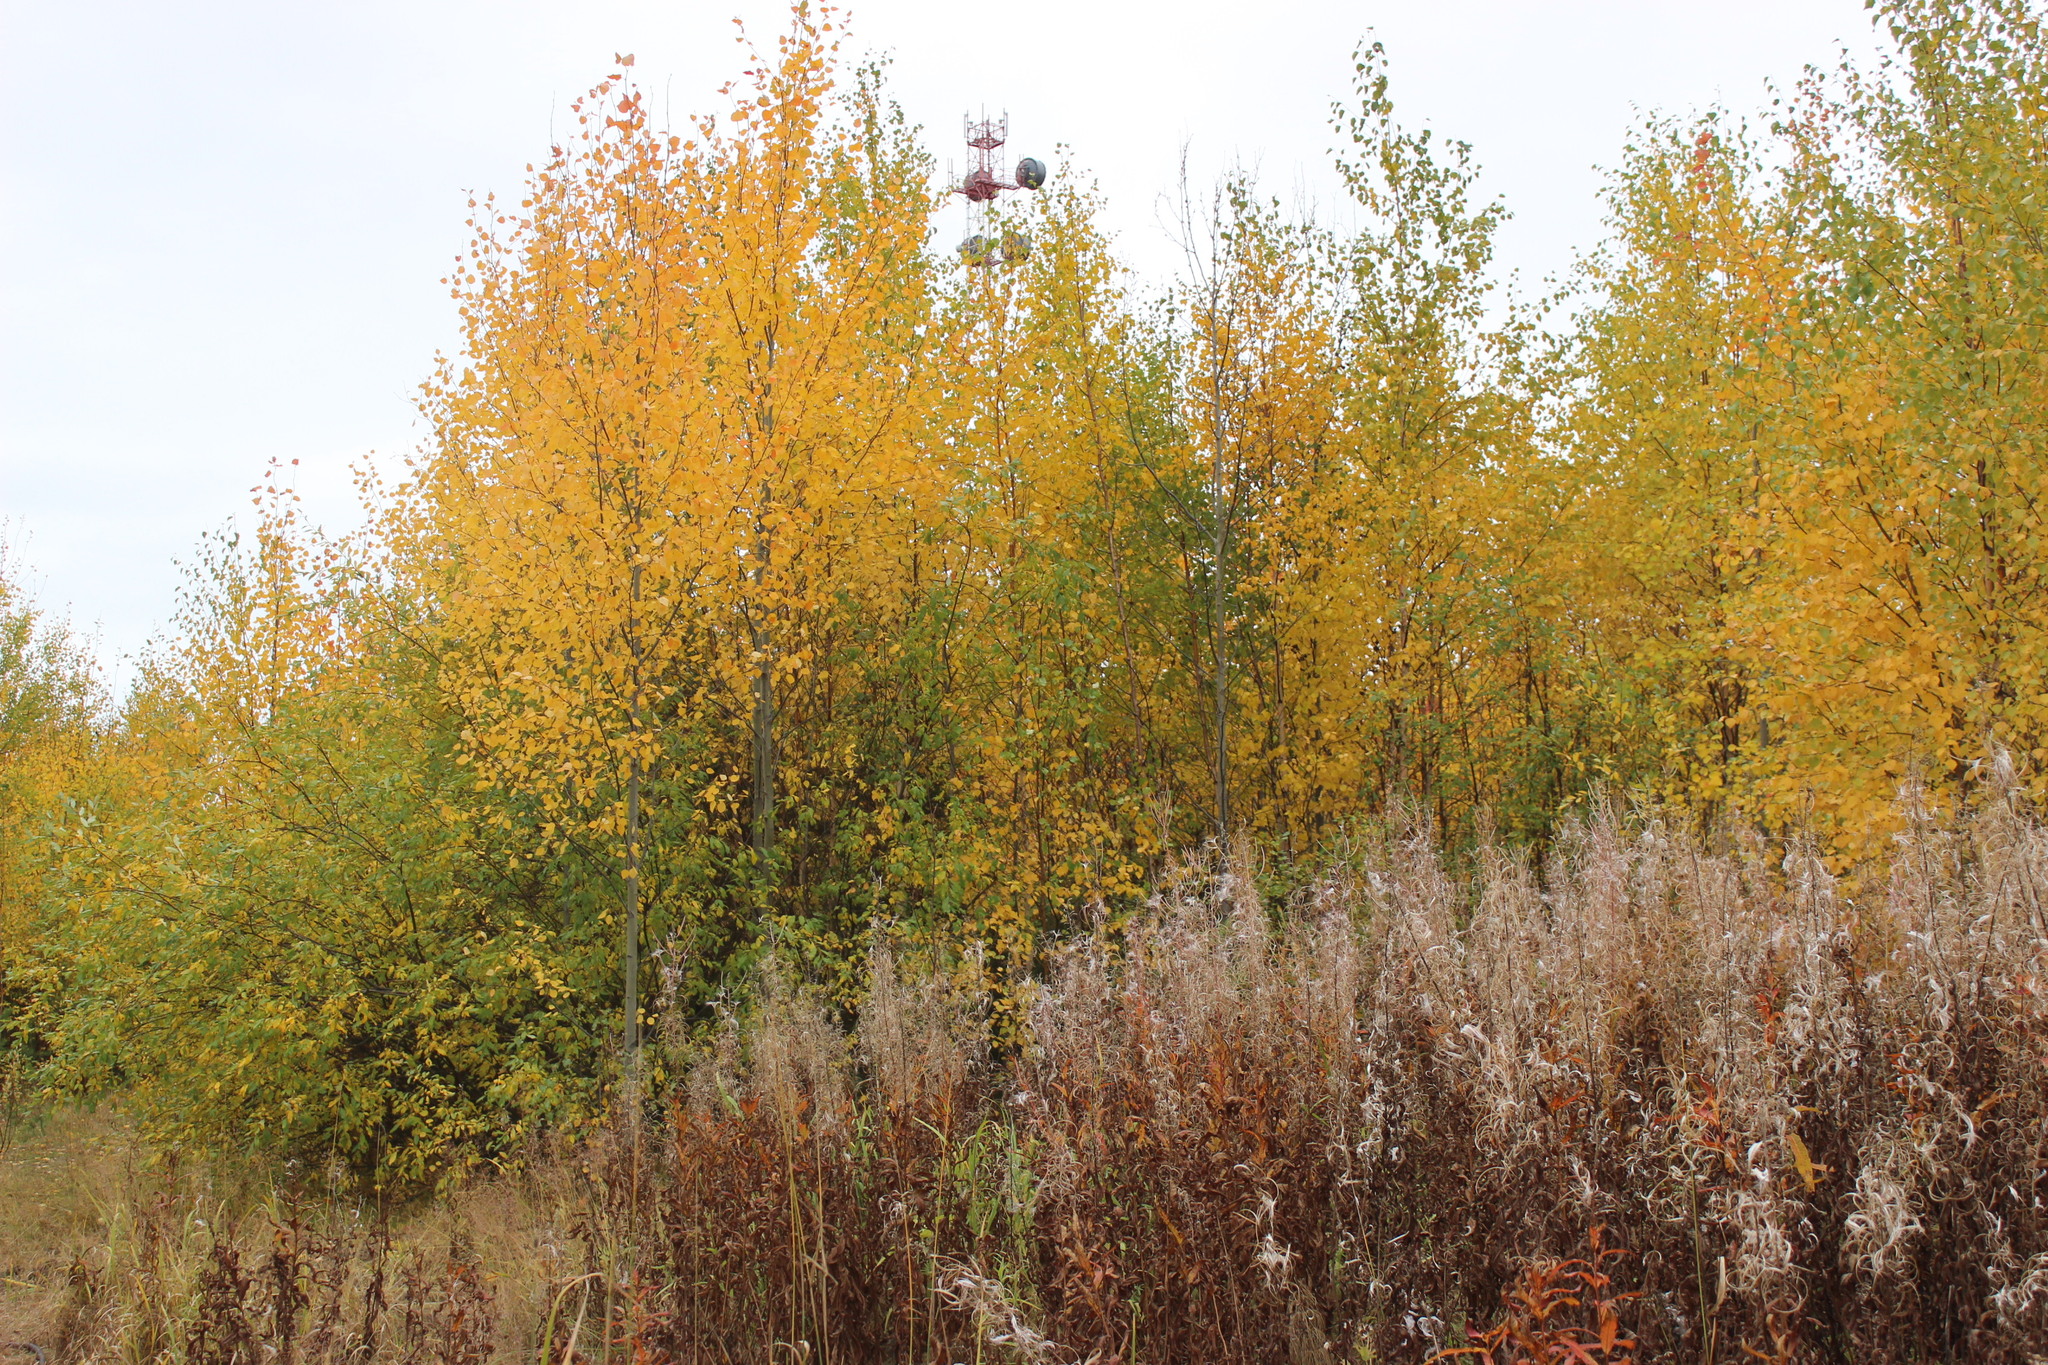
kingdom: Plantae
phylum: Tracheophyta
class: Magnoliopsida
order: Myrtales
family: Onagraceae
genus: Chamaenerion
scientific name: Chamaenerion angustifolium
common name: Fireweed
